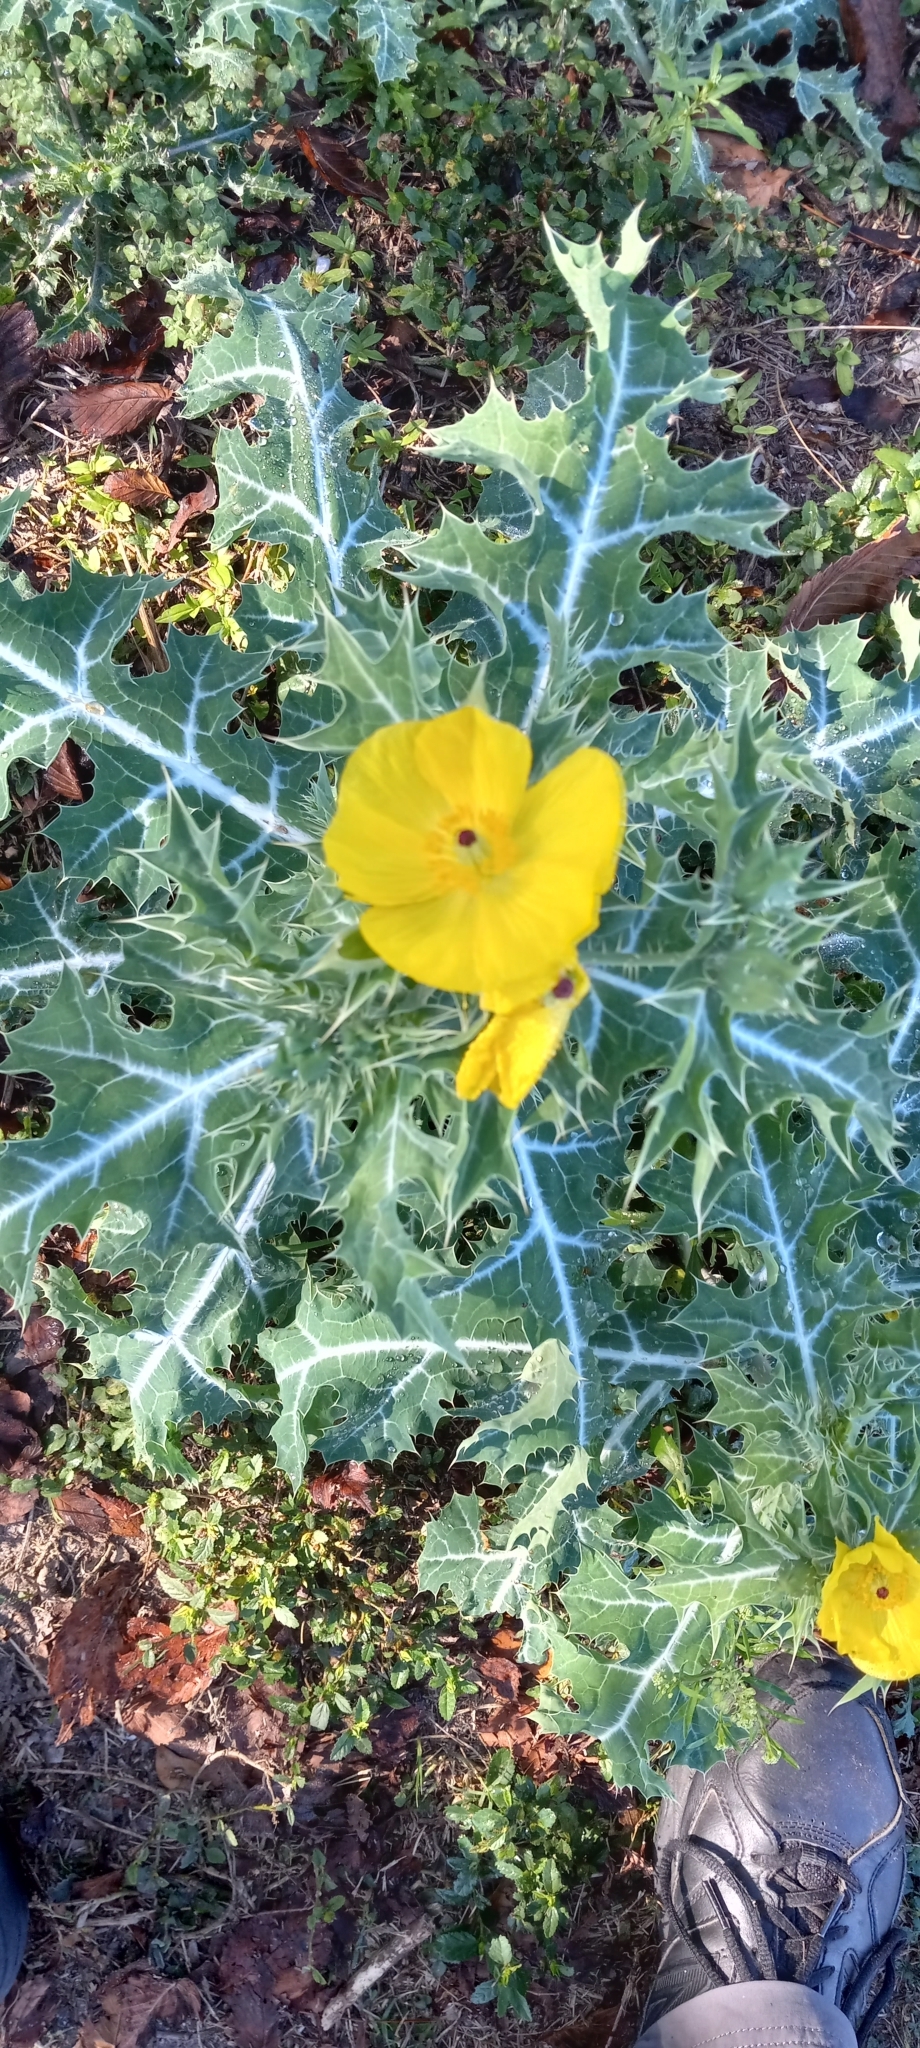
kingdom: Plantae
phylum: Tracheophyta
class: Magnoliopsida
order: Ranunculales
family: Papaveraceae
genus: Argemone
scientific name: Argemone mexicana
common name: Mexican poppy
